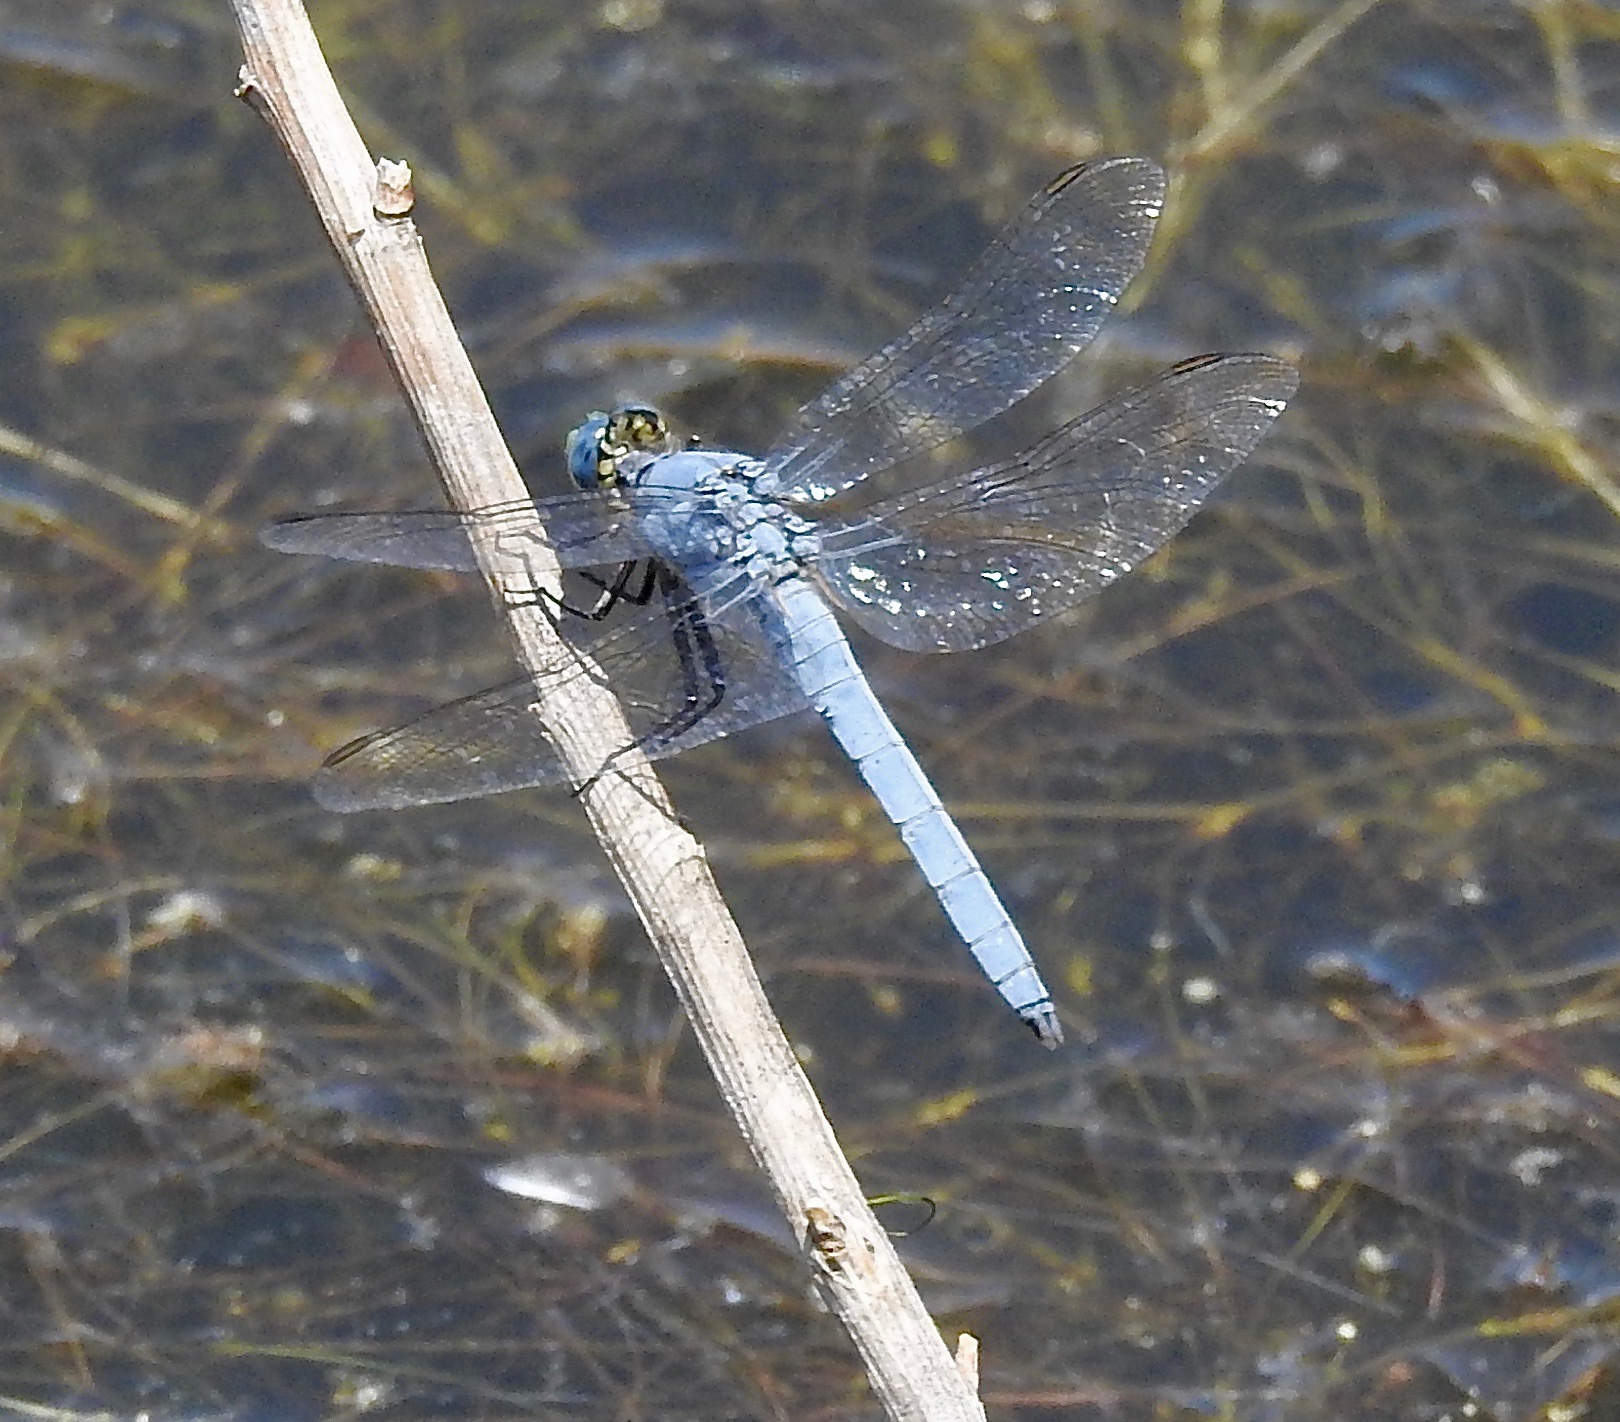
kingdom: Animalia
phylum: Arthropoda
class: Insecta
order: Odonata
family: Libellulidae
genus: Erythemis
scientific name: Erythemis collocata
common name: Western pondhawk
